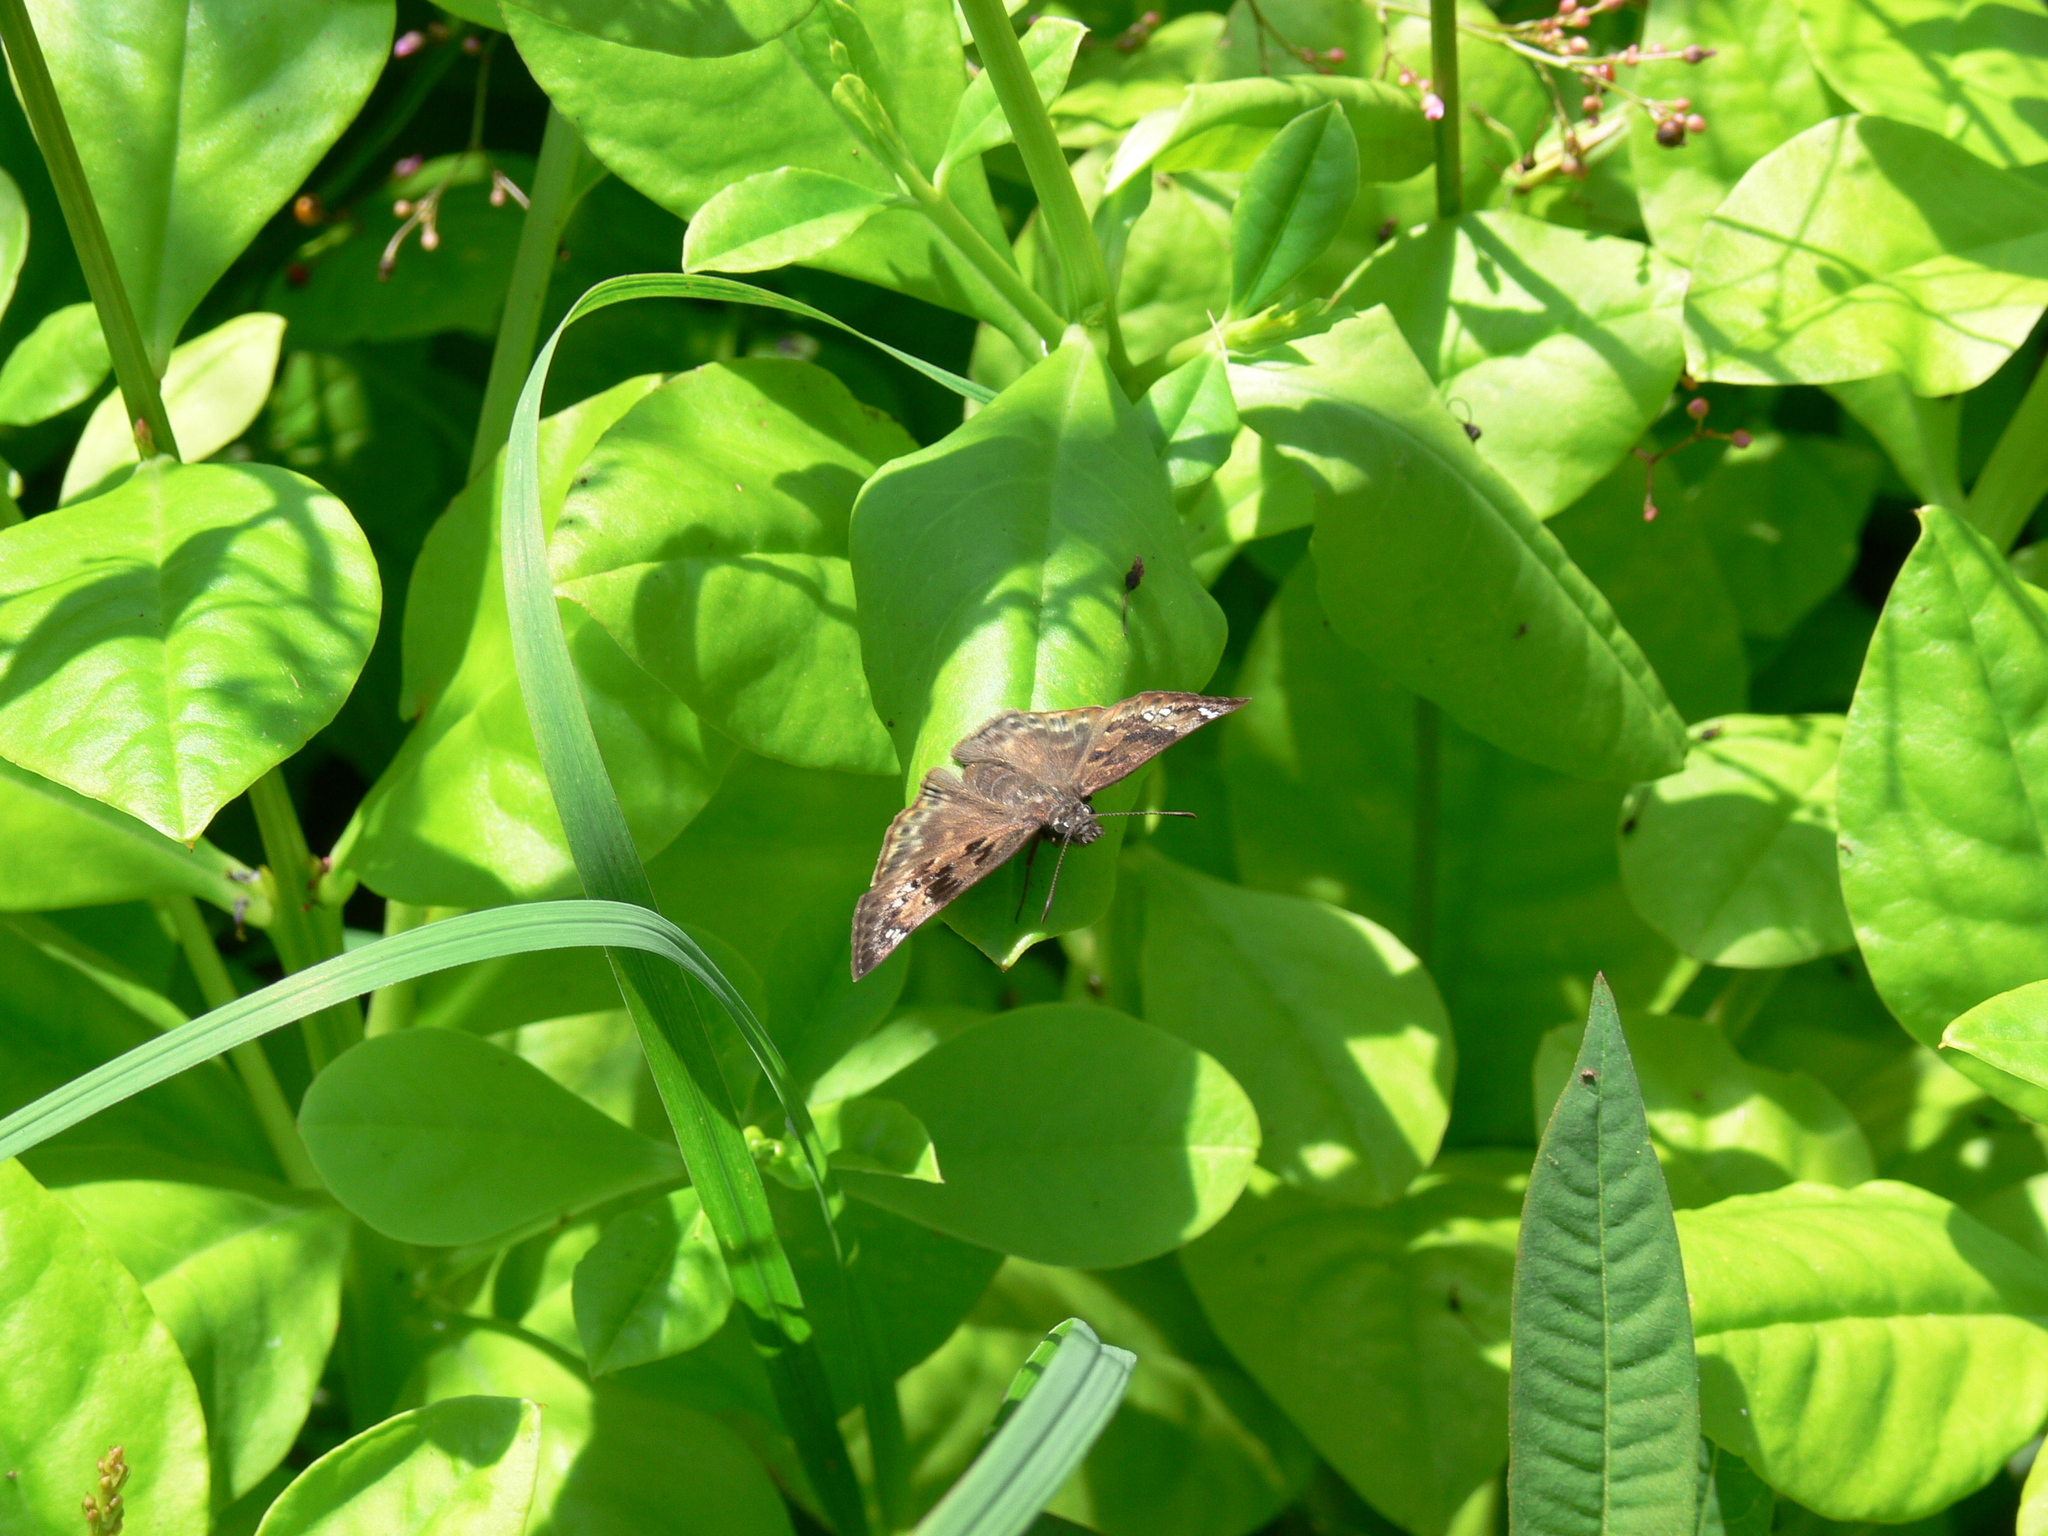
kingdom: Animalia
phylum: Arthropoda
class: Insecta
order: Lepidoptera
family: Hesperiidae
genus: Erynnis
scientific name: Erynnis horatius
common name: Horace's duskywing
